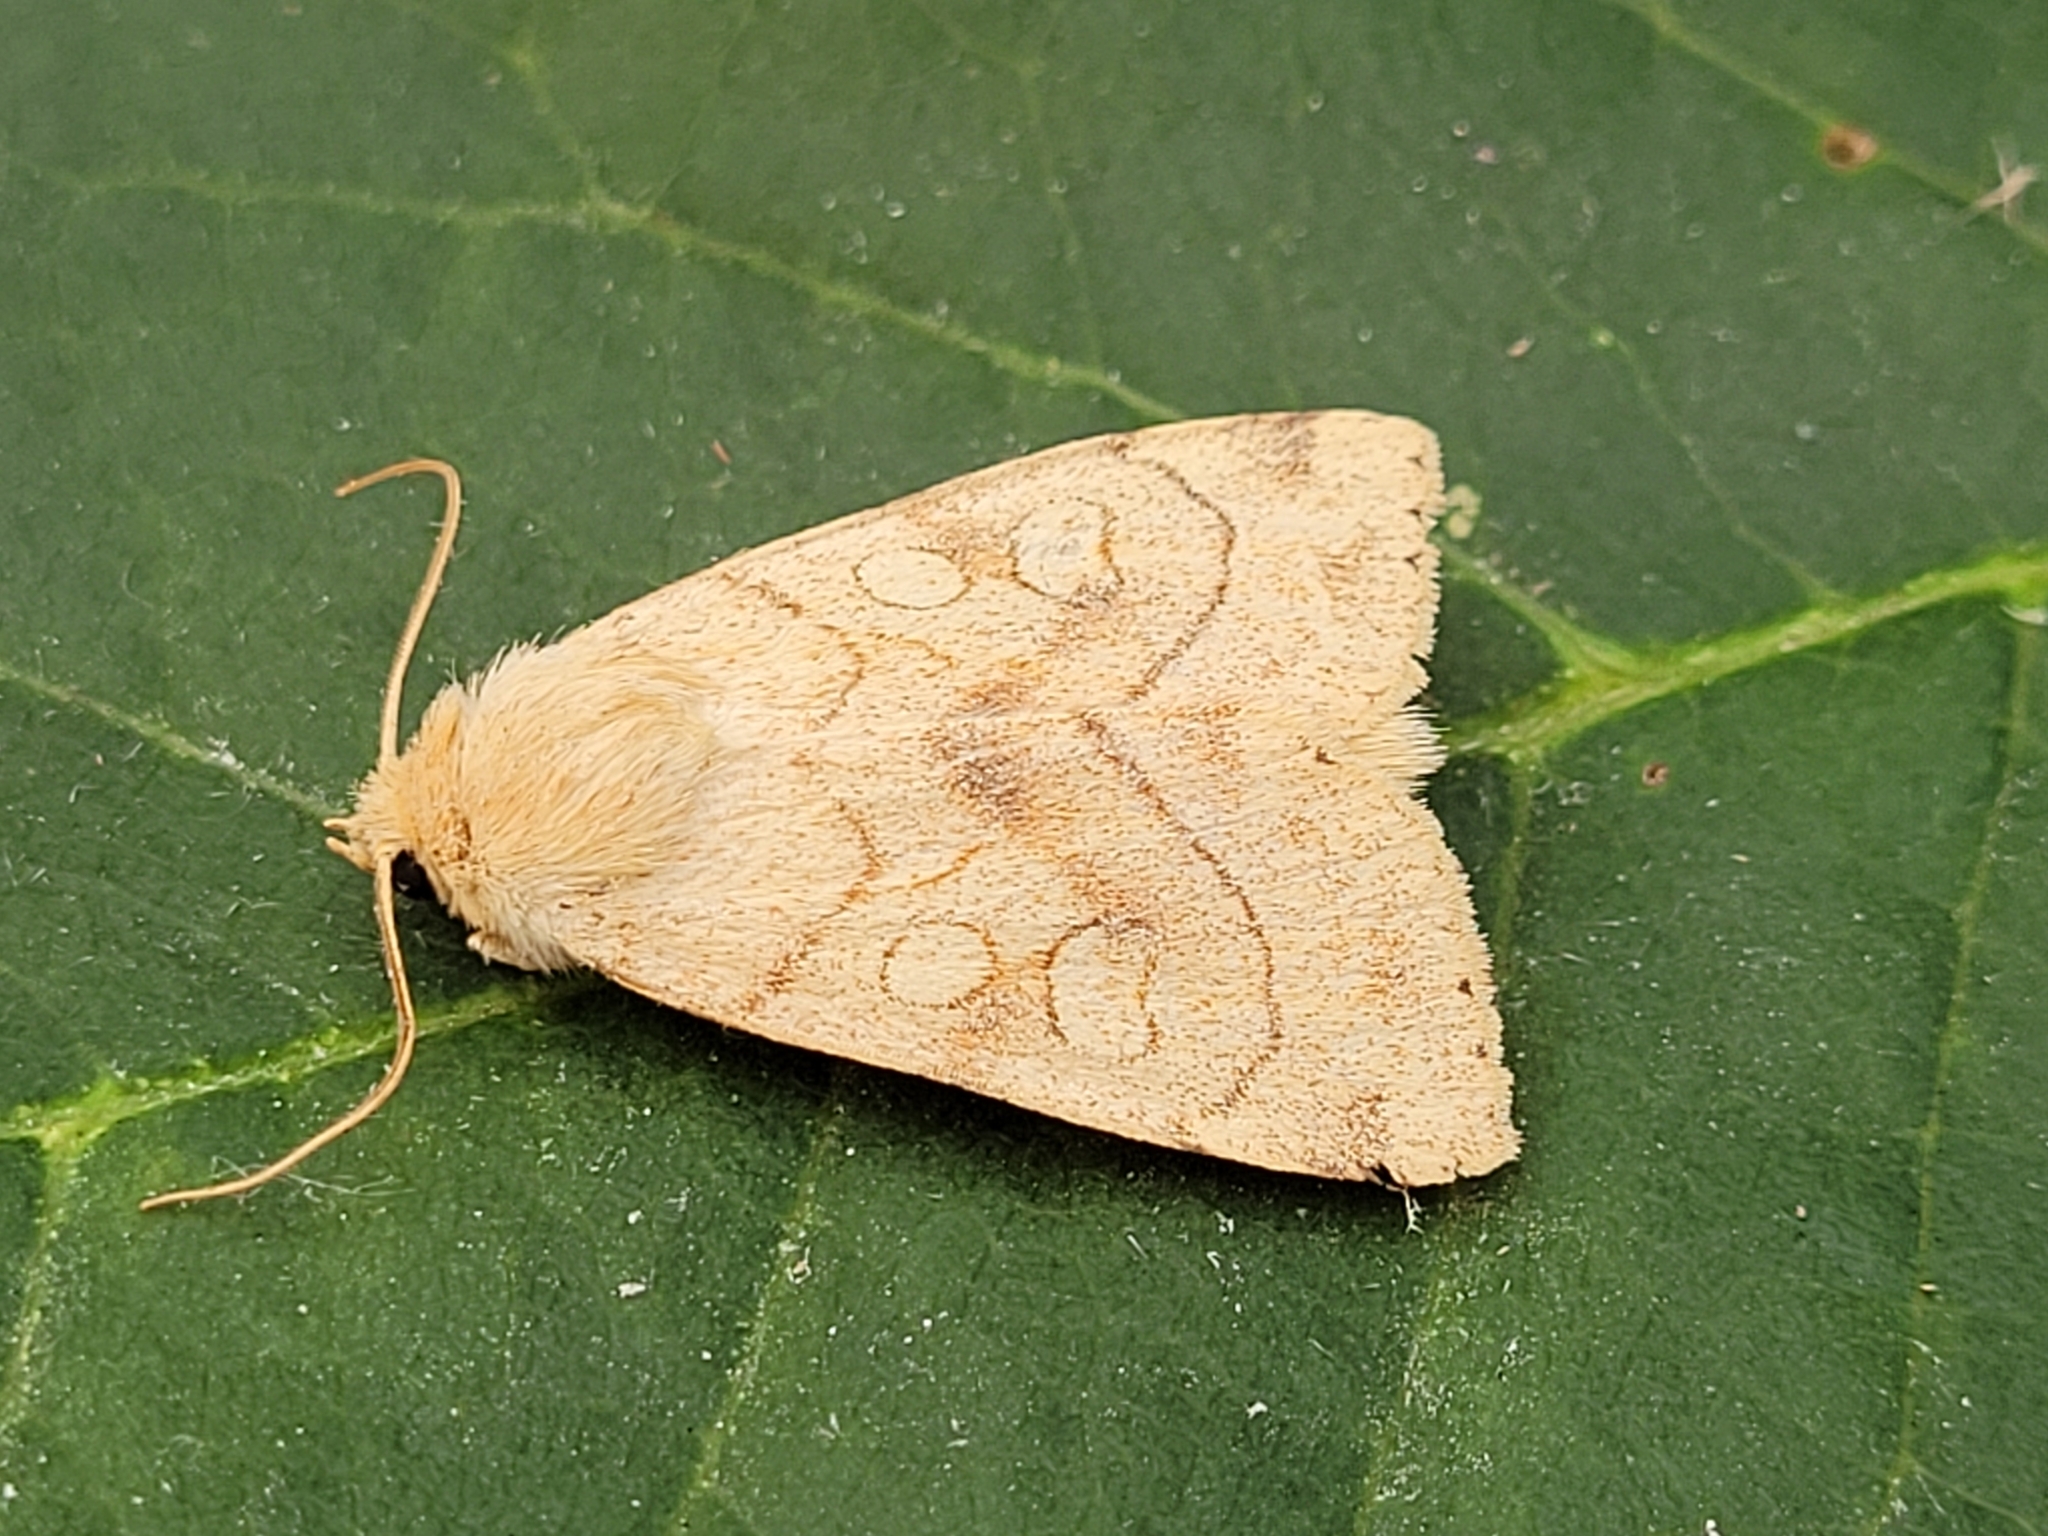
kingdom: Animalia
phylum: Arthropoda
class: Insecta
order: Lepidoptera
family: Noctuidae
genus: Enargia
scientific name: Enargia decolor
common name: Aspen twoleaf tier moth
